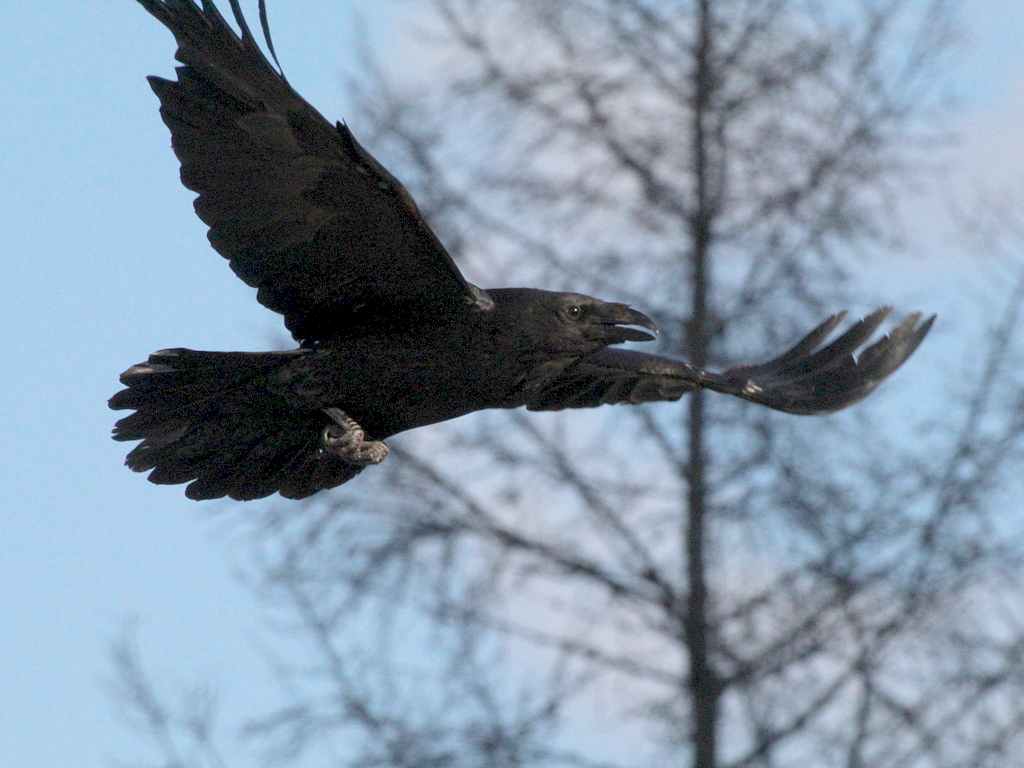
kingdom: Animalia
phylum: Chordata
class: Aves
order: Passeriformes
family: Corvidae
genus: Corvus
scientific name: Corvus corax
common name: Common raven
